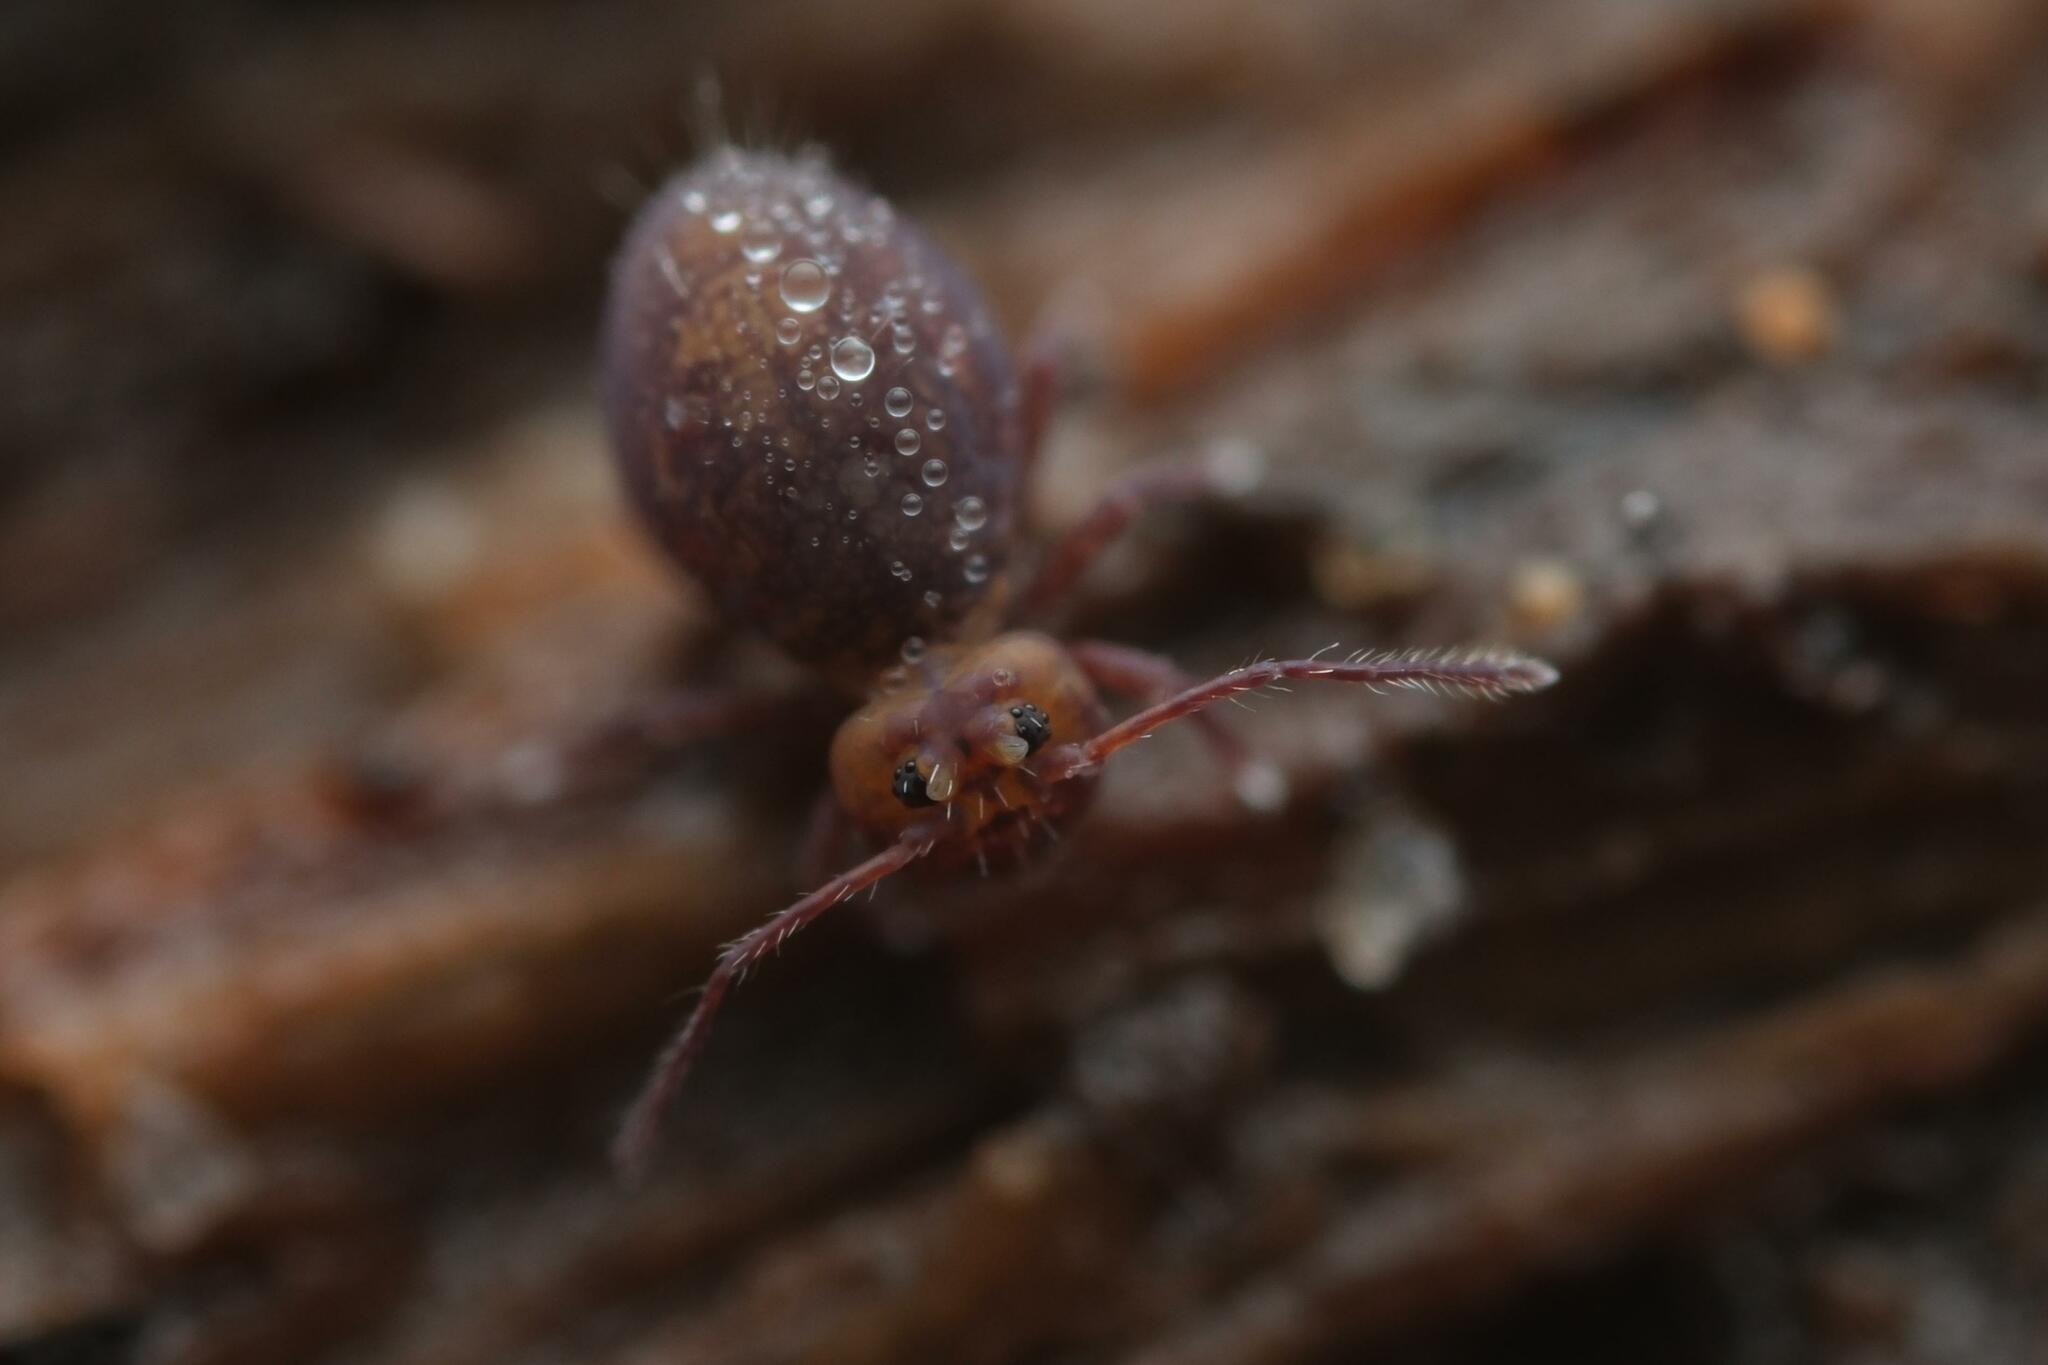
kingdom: Animalia
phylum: Arthropoda
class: Collembola
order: Symphypleona
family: Dicyrtomidae
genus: Dicyrtoma
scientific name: Dicyrtoma fusca
